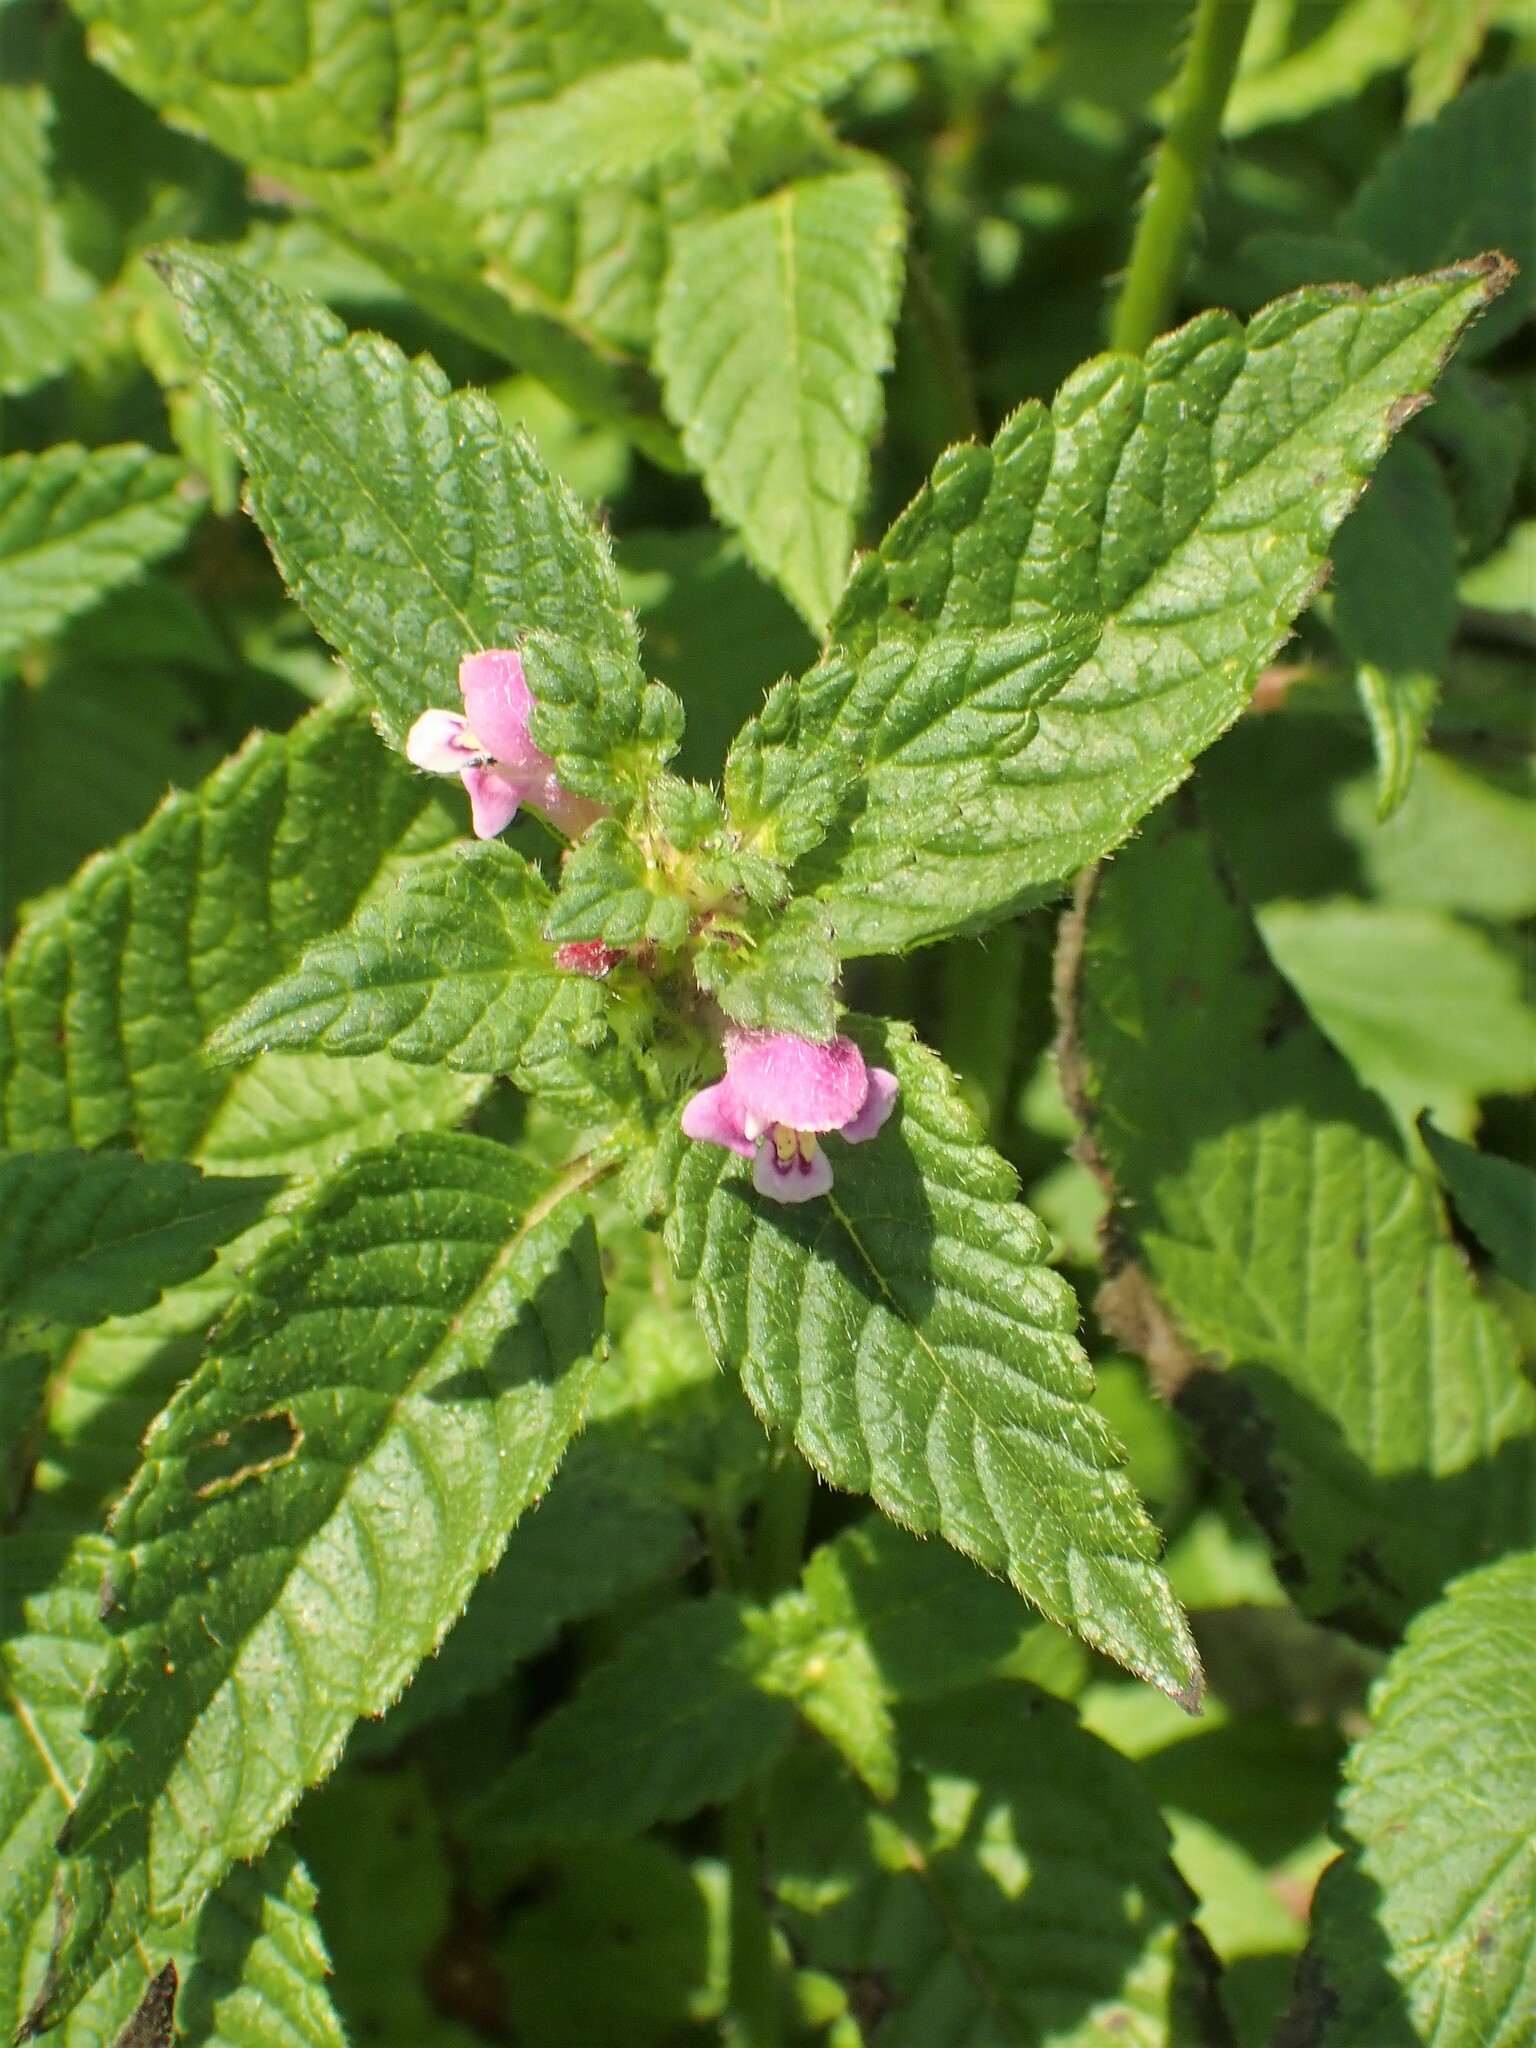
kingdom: Plantae
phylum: Tracheophyta
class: Magnoliopsida
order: Lamiales
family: Lamiaceae
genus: Galeopsis
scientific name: Galeopsis tetrahit
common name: Common hemp-nettle
